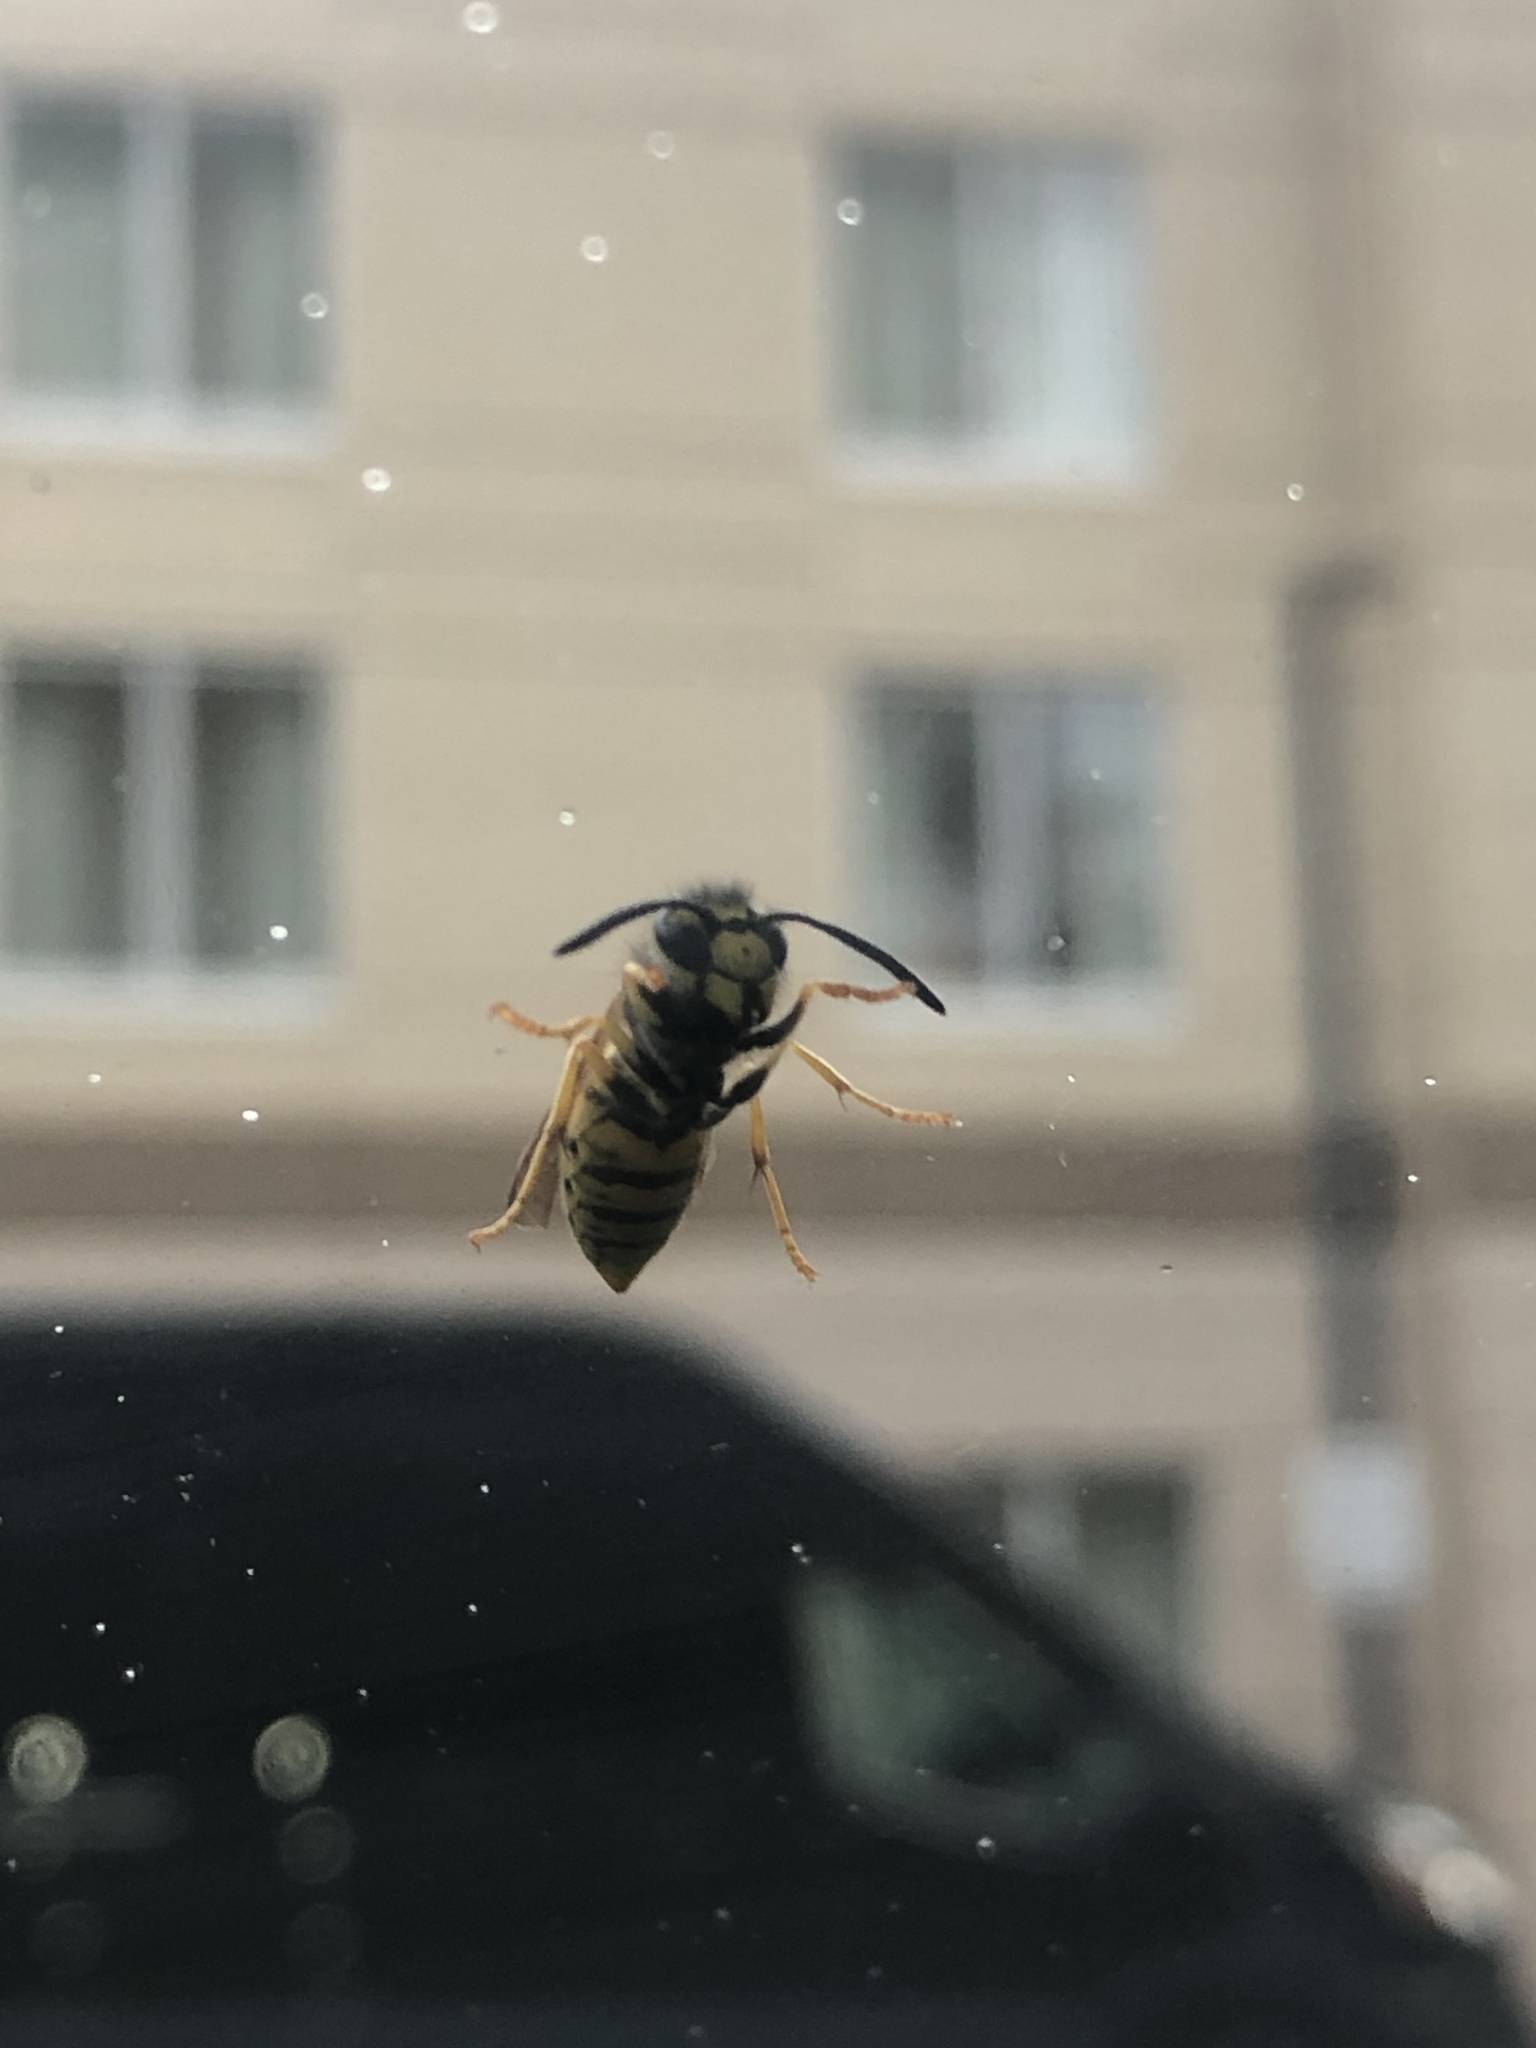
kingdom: Animalia
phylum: Arthropoda
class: Insecta
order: Hymenoptera
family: Vespidae
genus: Vespula
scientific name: Vespula germanica
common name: German wasp
